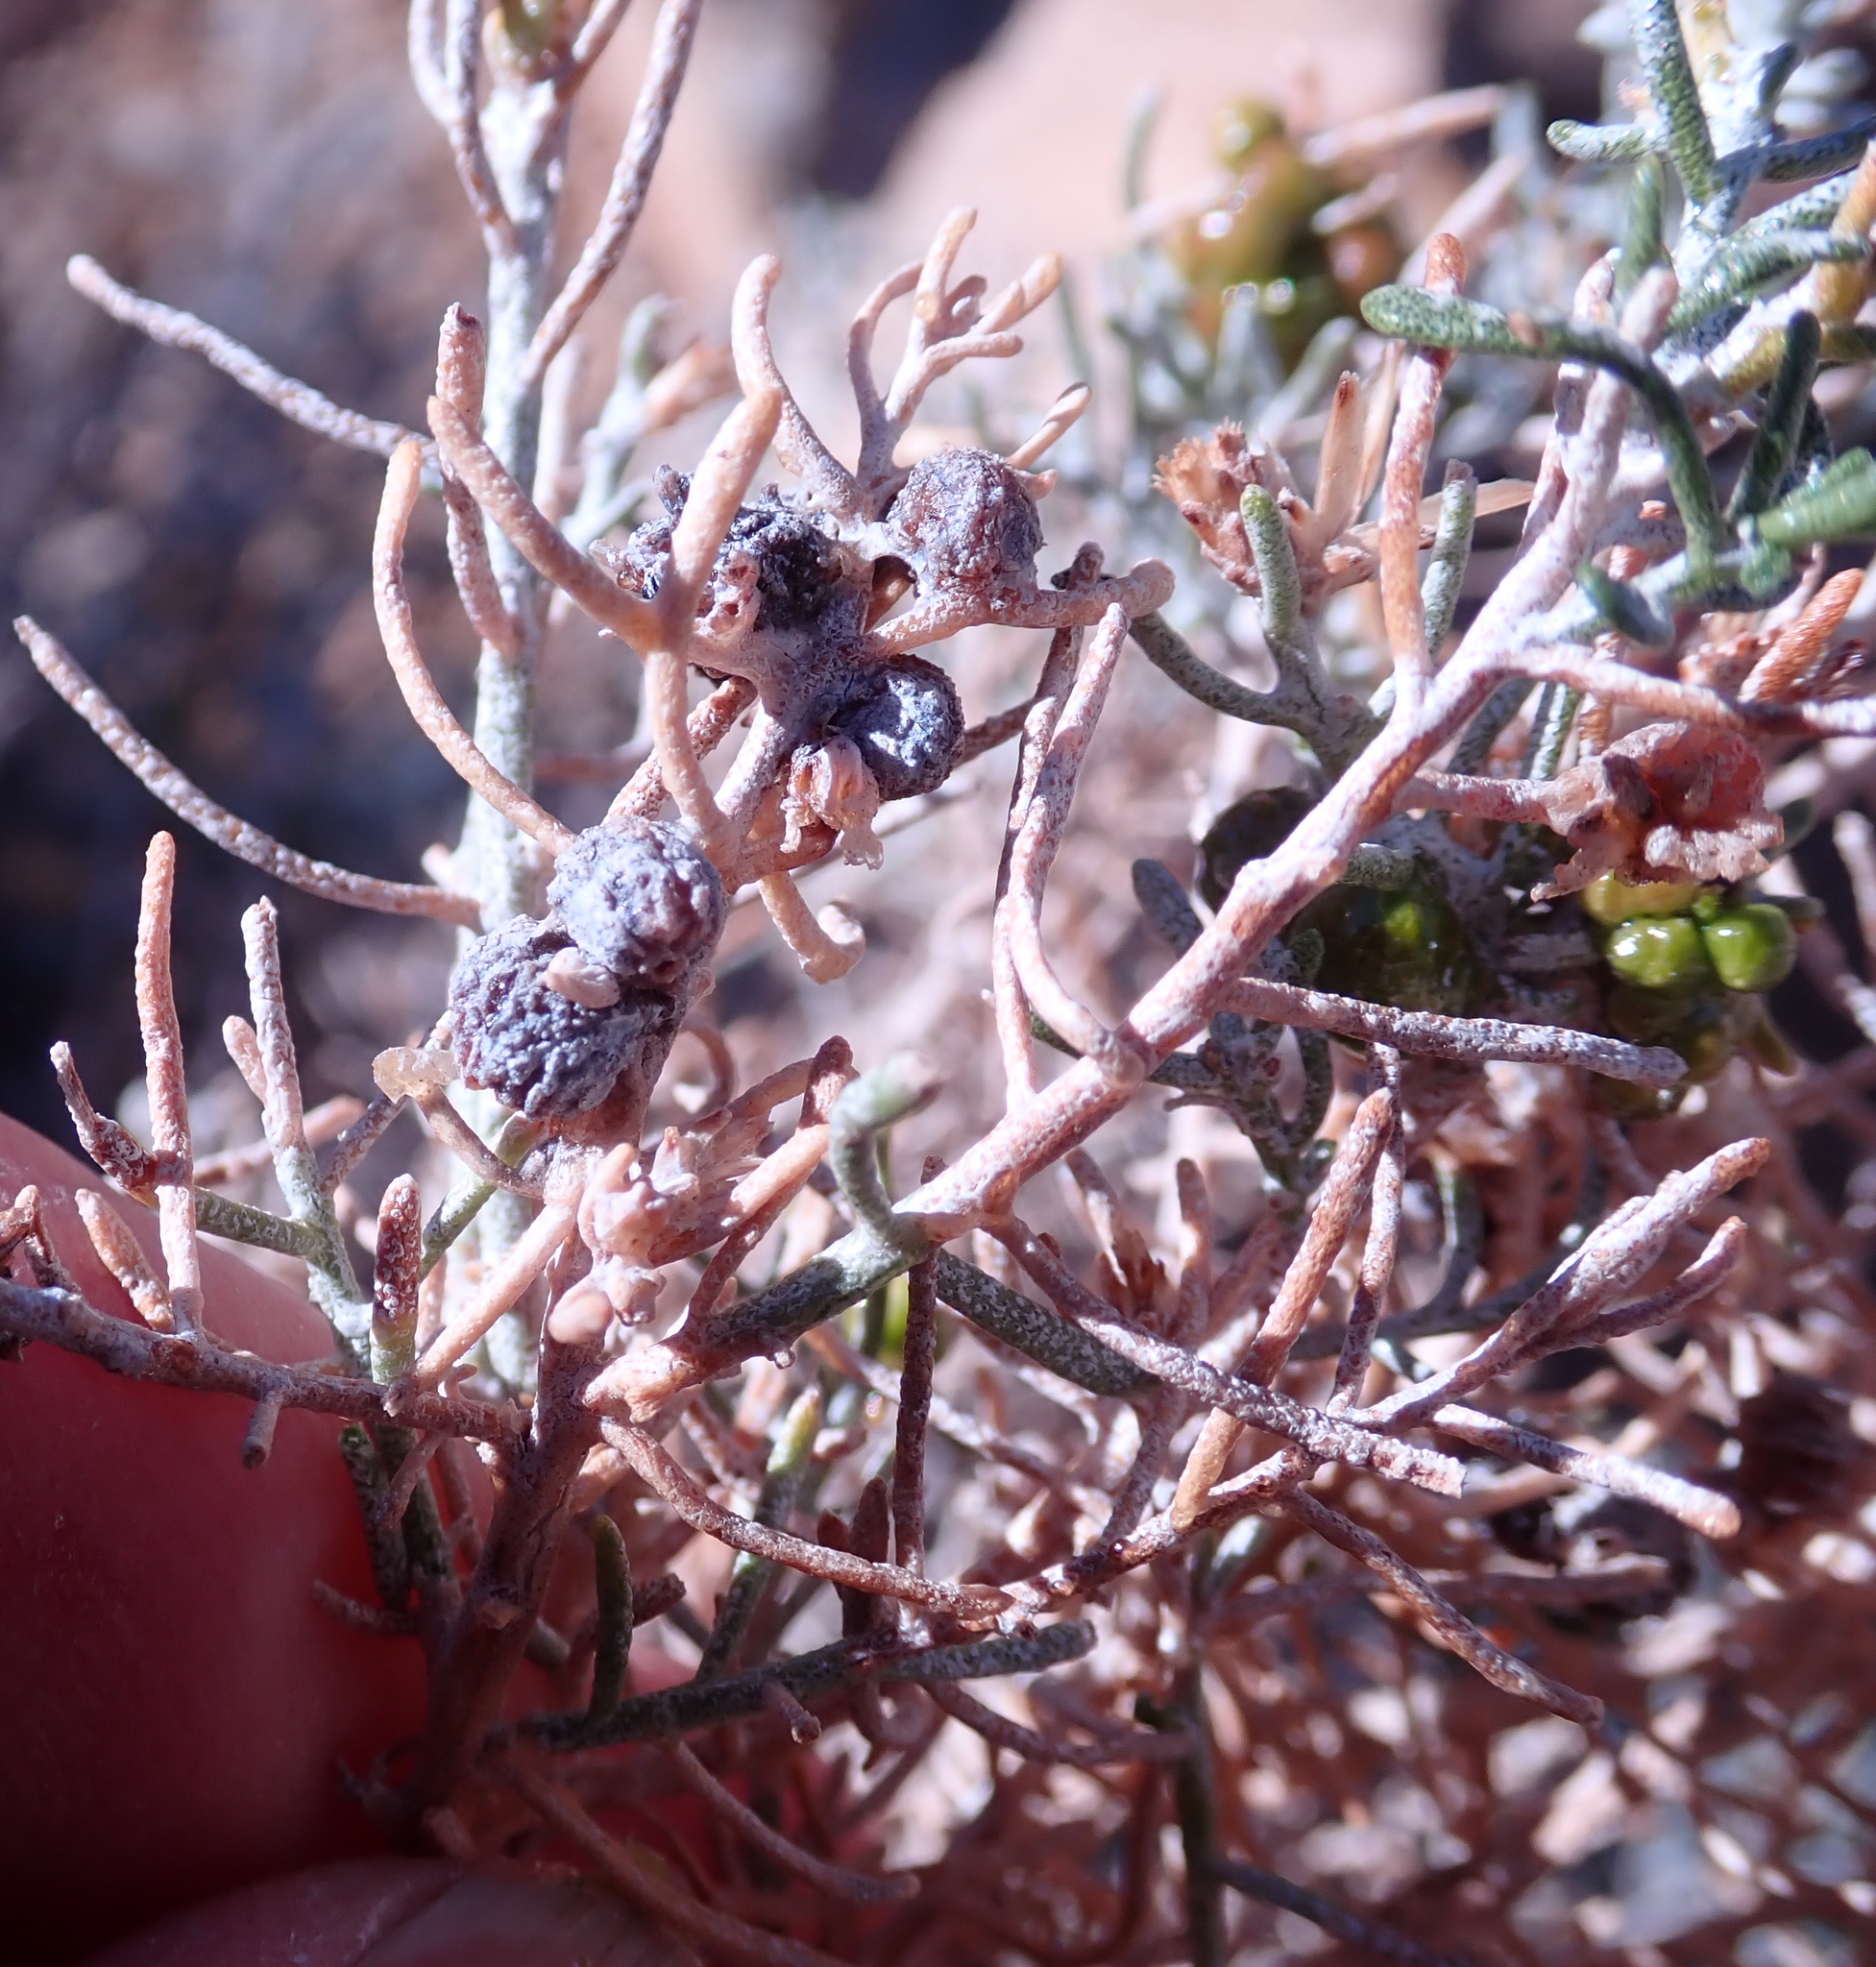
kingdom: Animalia
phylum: Arthropoda
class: Insecta
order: Diptera
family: Cecidomyiidae
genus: Rhopalomyia
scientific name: Rhopalomyia glutinosa
